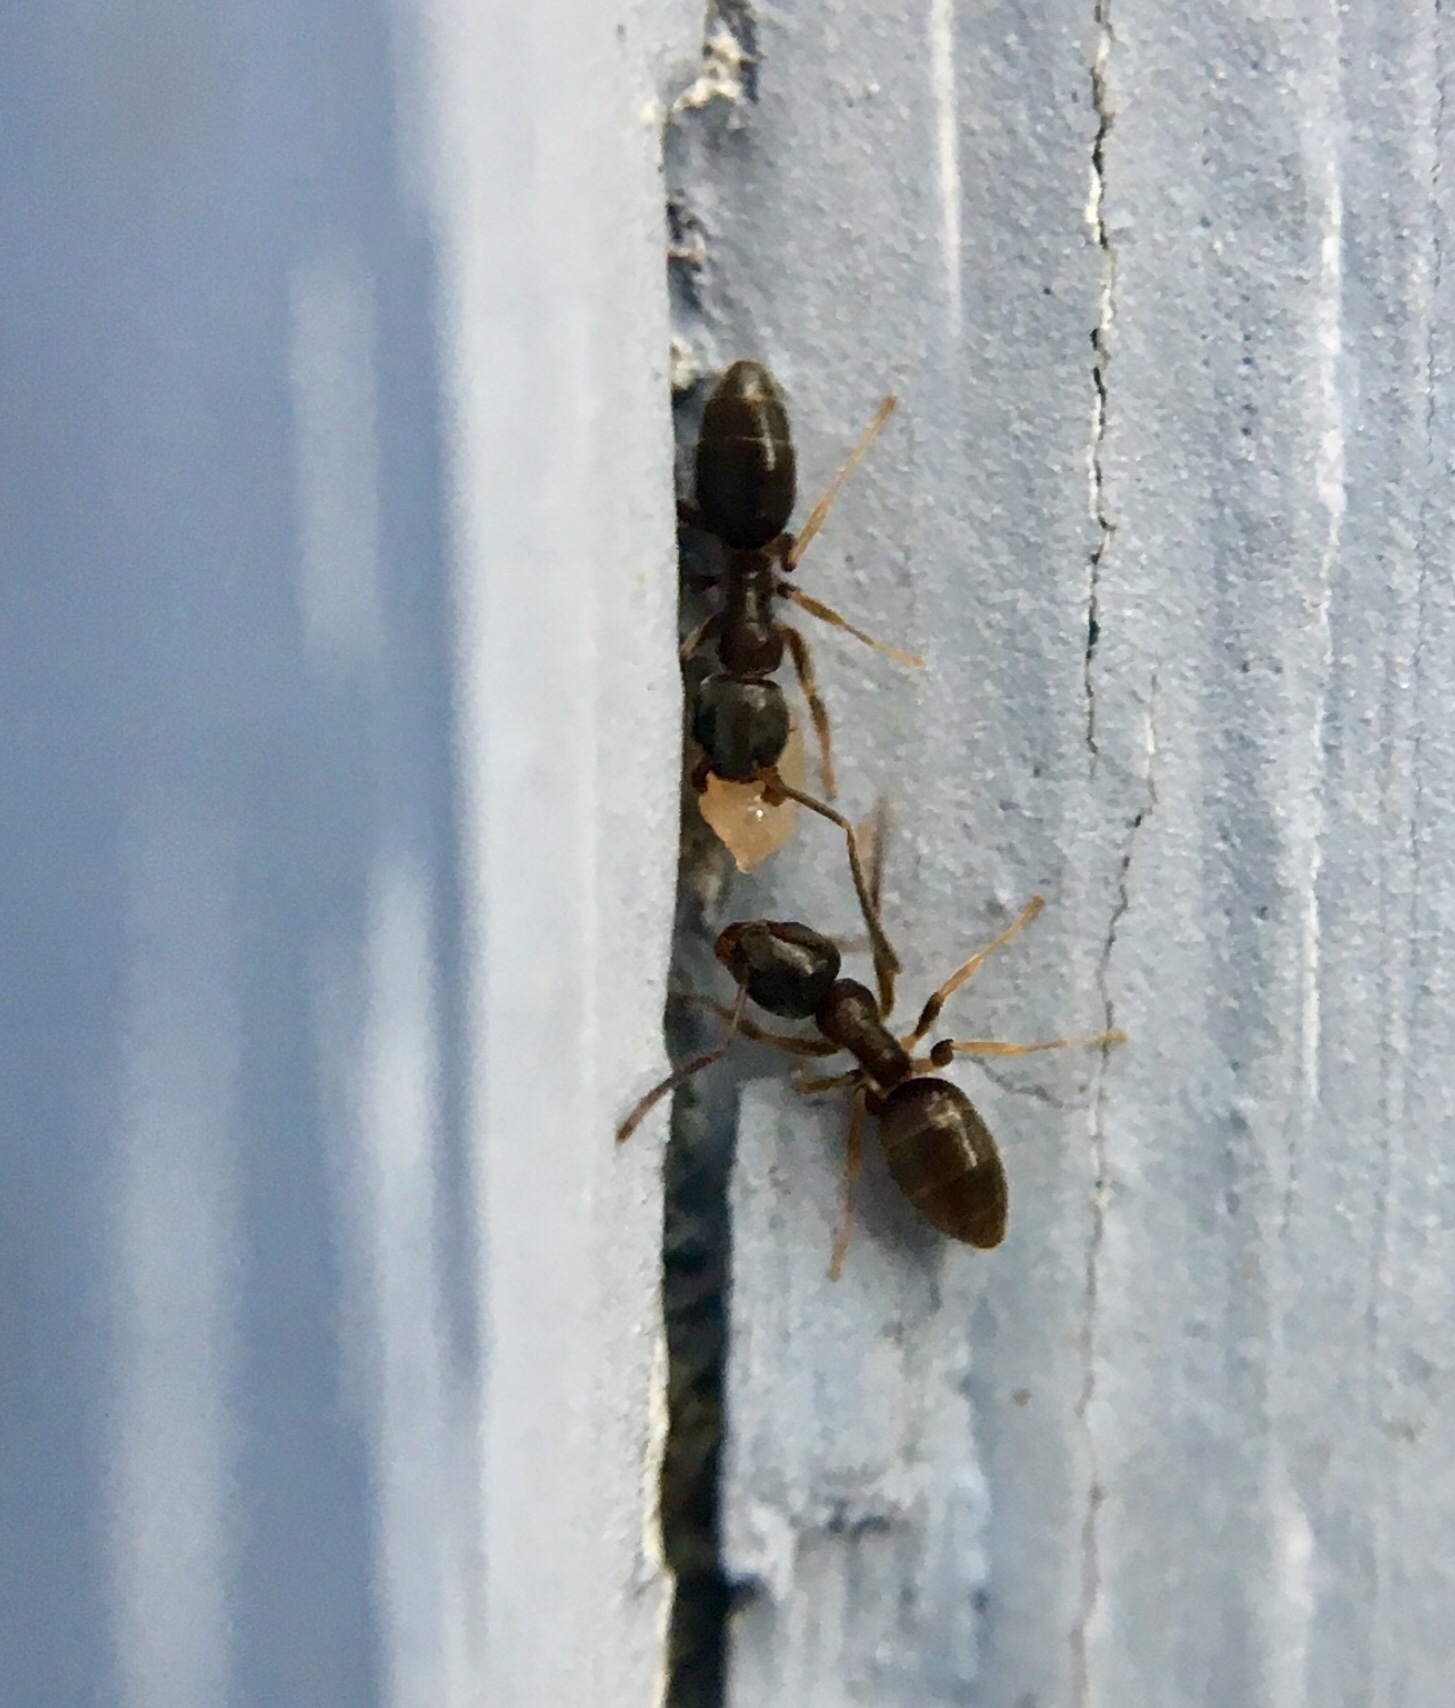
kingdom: Animalia
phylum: Arthropoda
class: Insecta
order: Hymenoptera
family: Formicidae
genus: Tapinoma
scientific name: Tapinoma sessile
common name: Odorous house ant
